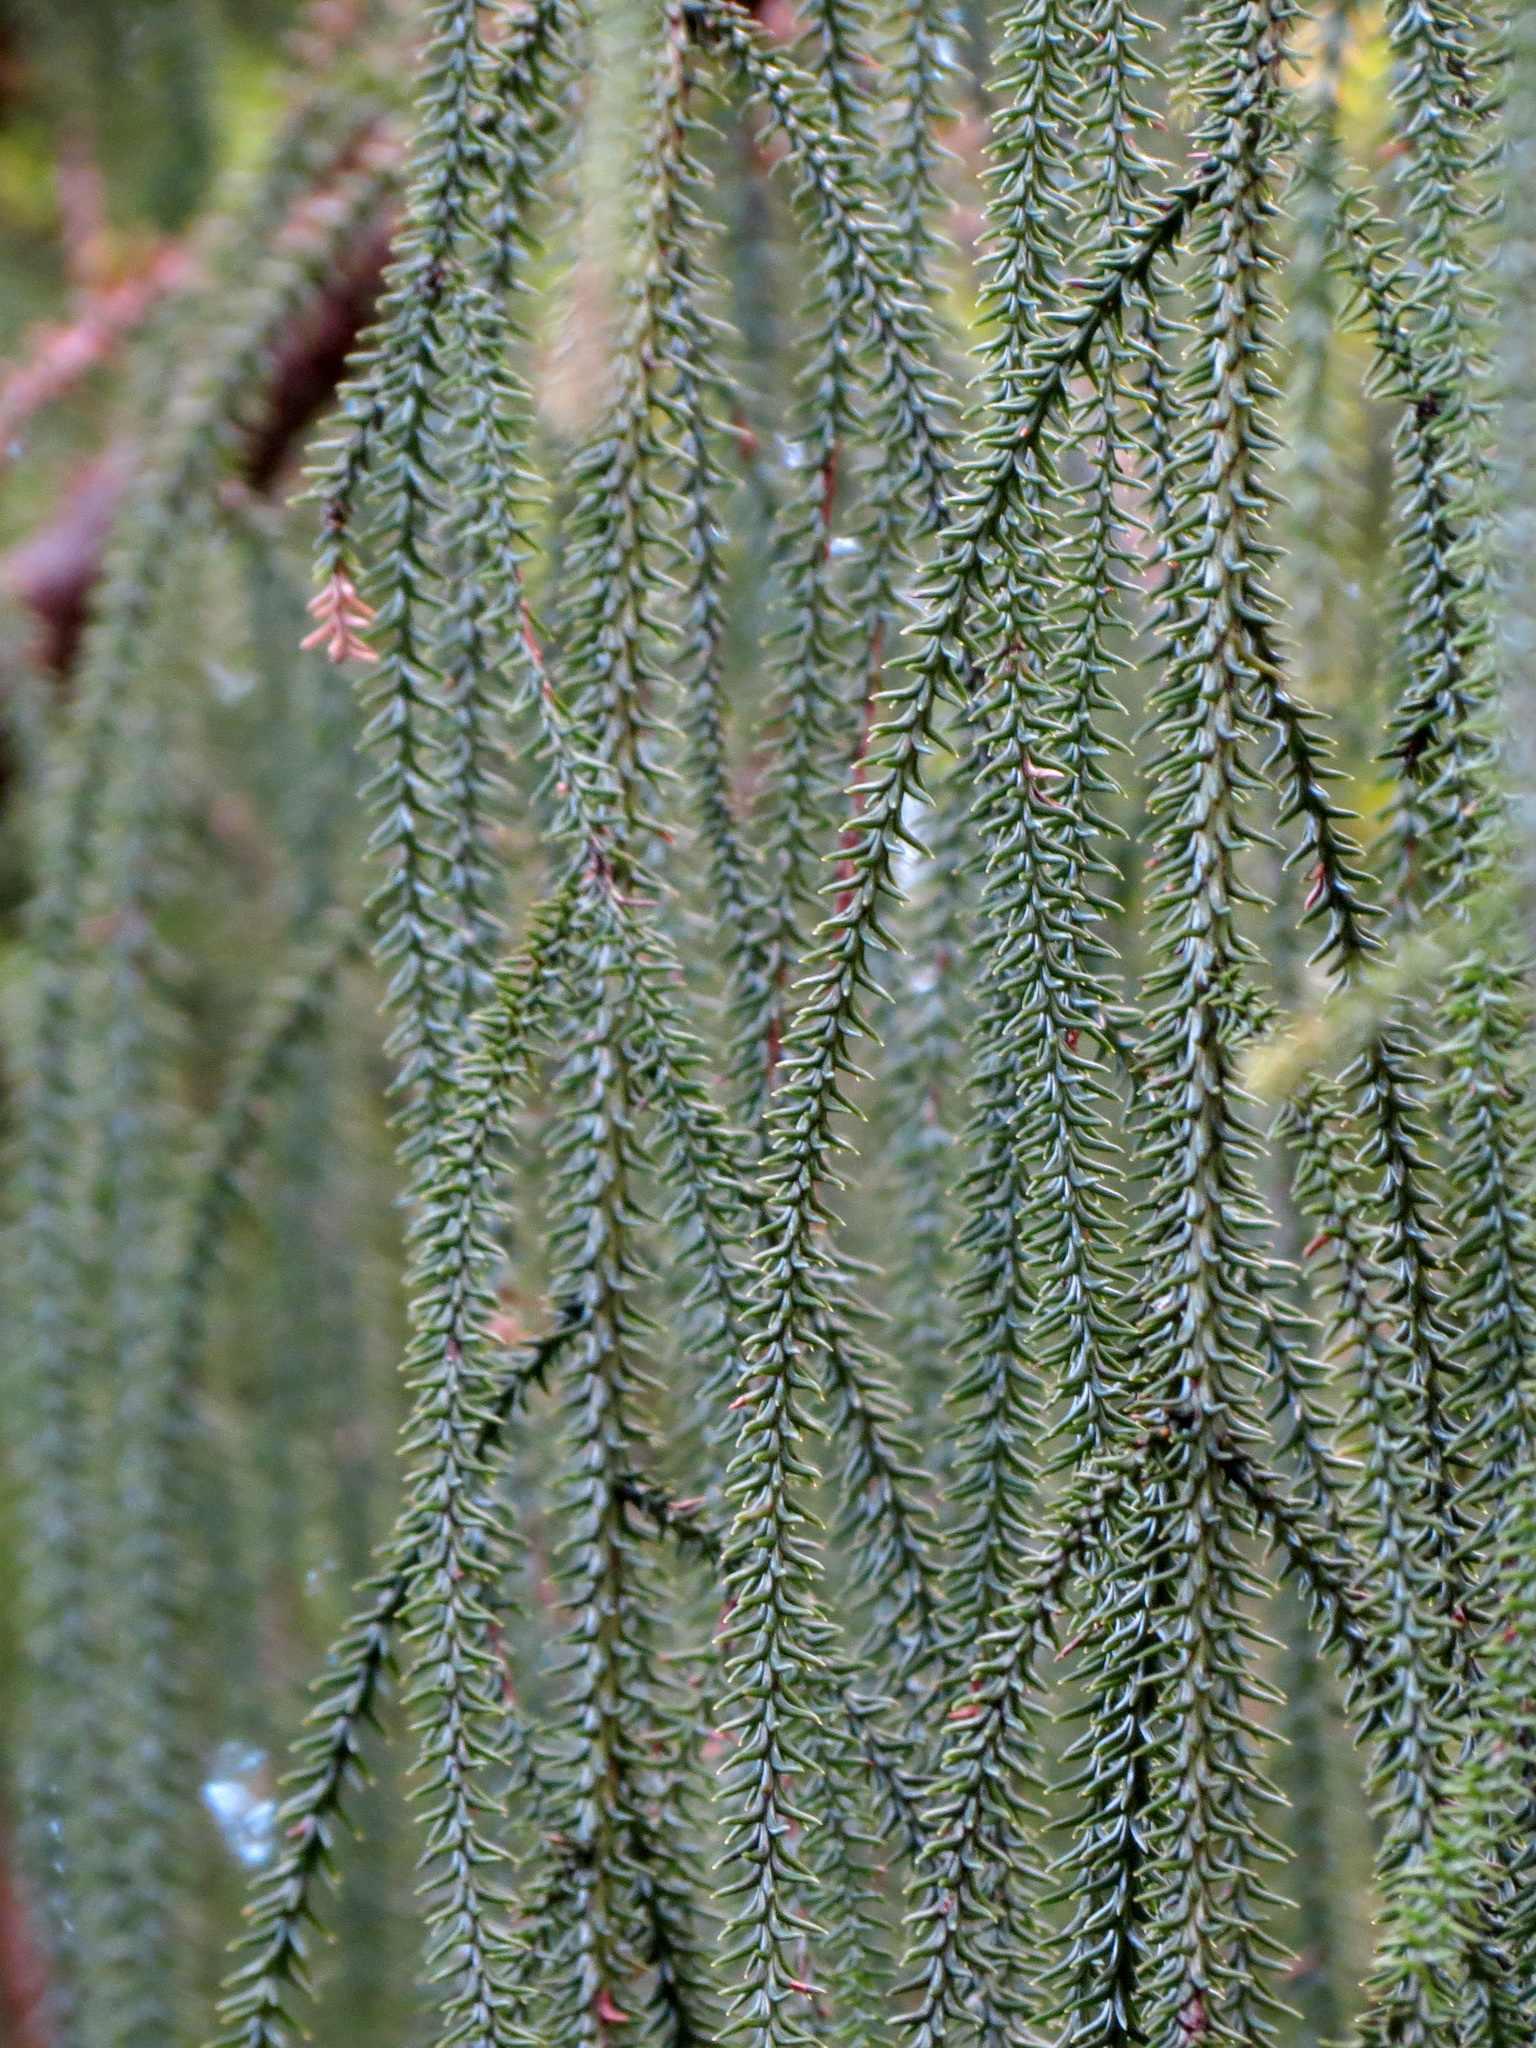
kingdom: Plantae
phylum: Tracheophyta
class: Pinopsida
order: Pinales
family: Podocarpaceae
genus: Dacrydium
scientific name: Dacrydium cupressinum
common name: Red pine
